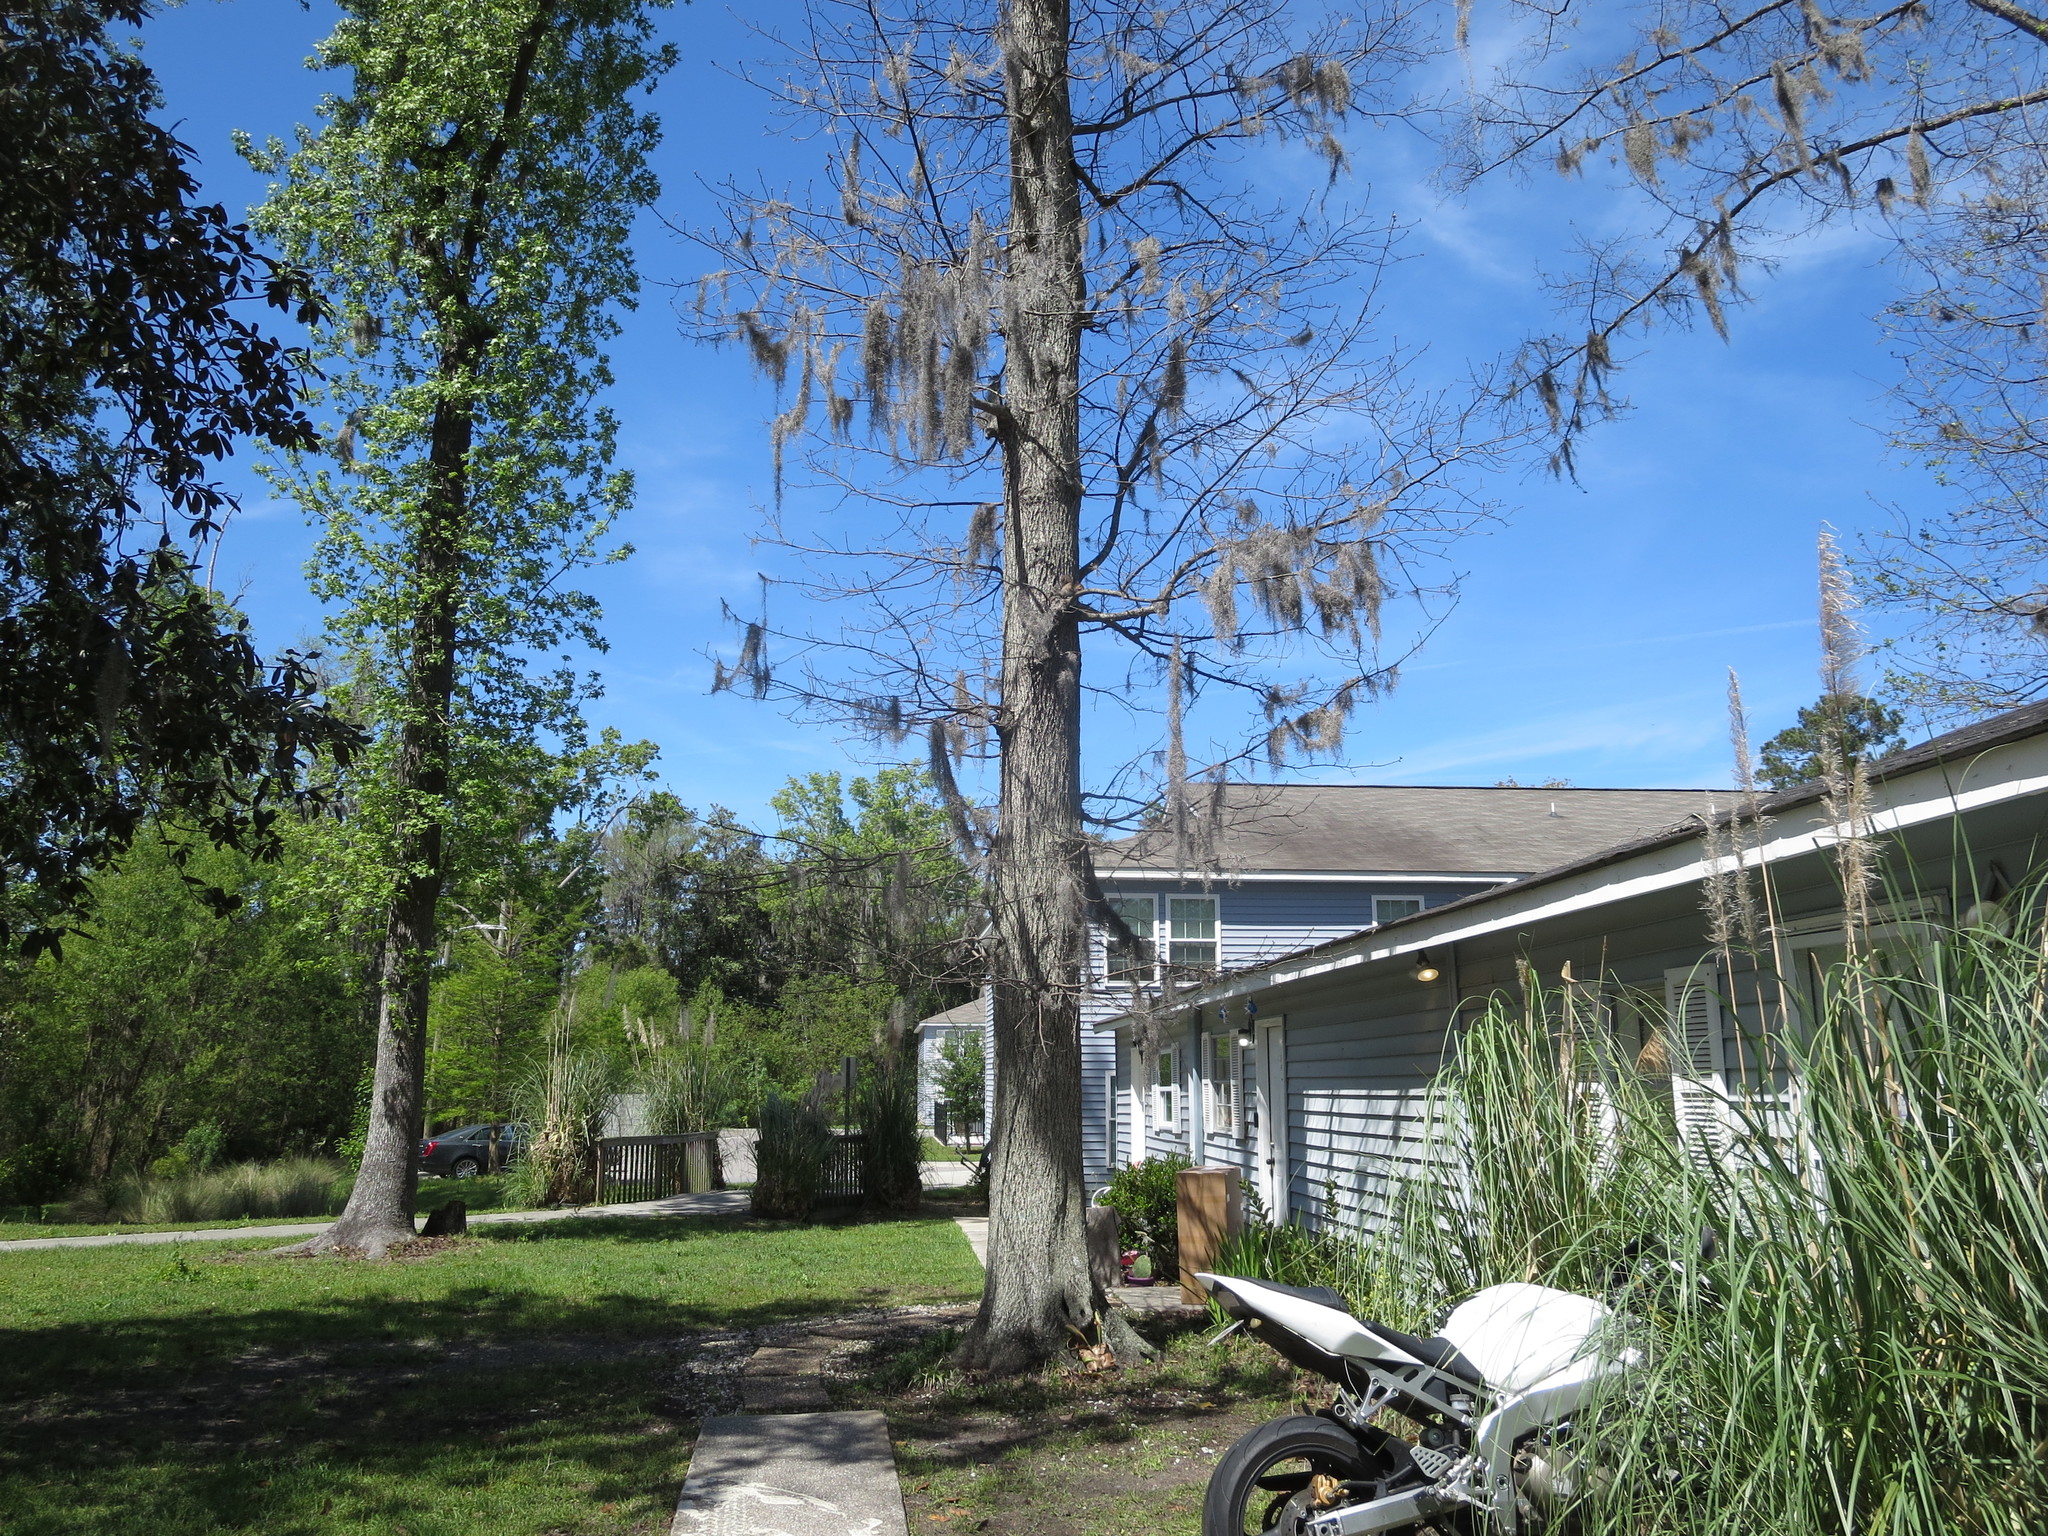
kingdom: Animalia
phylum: Chordata
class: Mammalia
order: Rodentia
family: Sciuridae
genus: Sciurus
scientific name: Sciurus carolinensis
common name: Eastern gray squirrel
